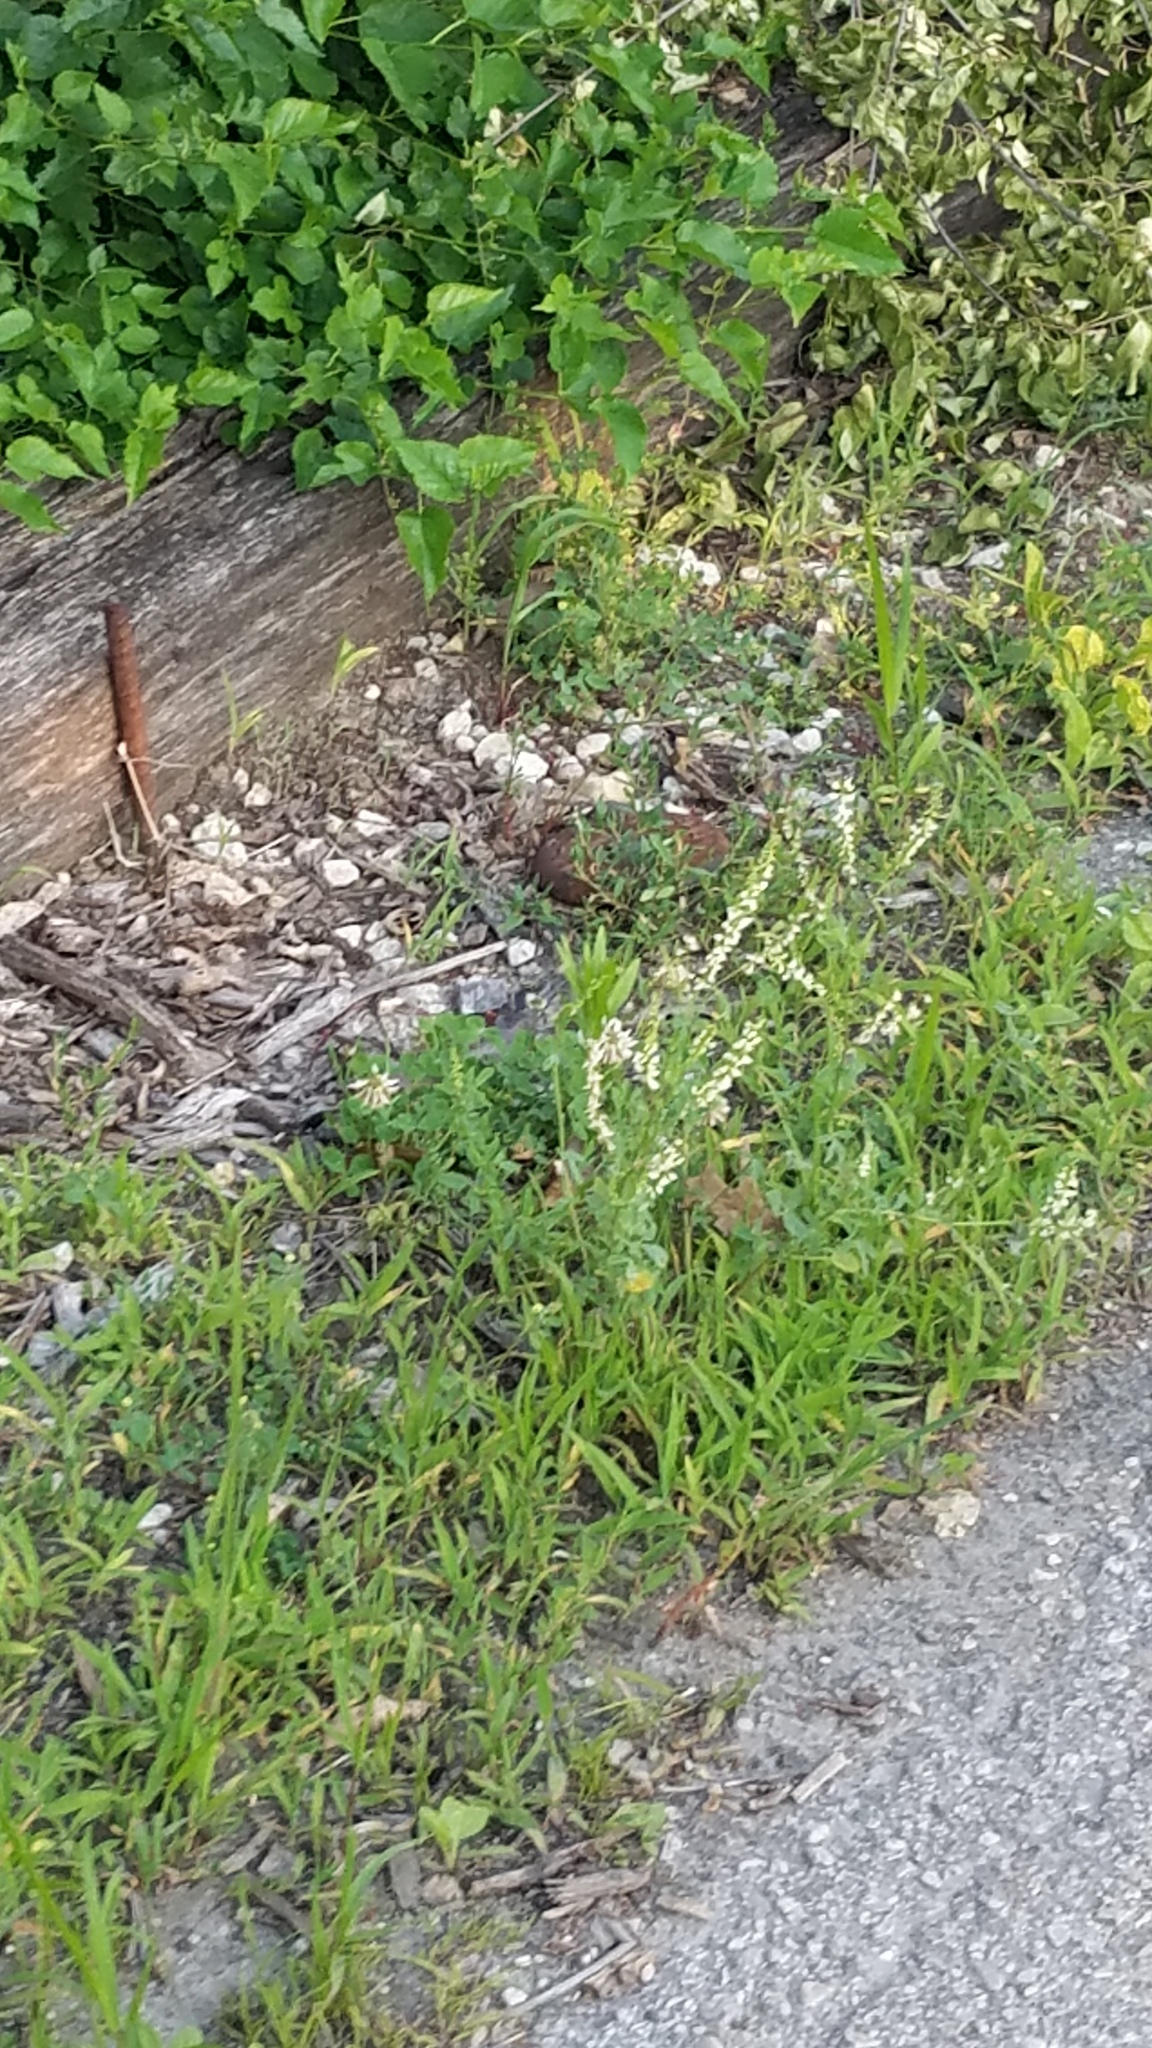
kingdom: Plantae
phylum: Tracheophyta
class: Magnoliopsida
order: Fabales
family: Fabaceae
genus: Melilotus
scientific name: Melilotus albus
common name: White melilot
